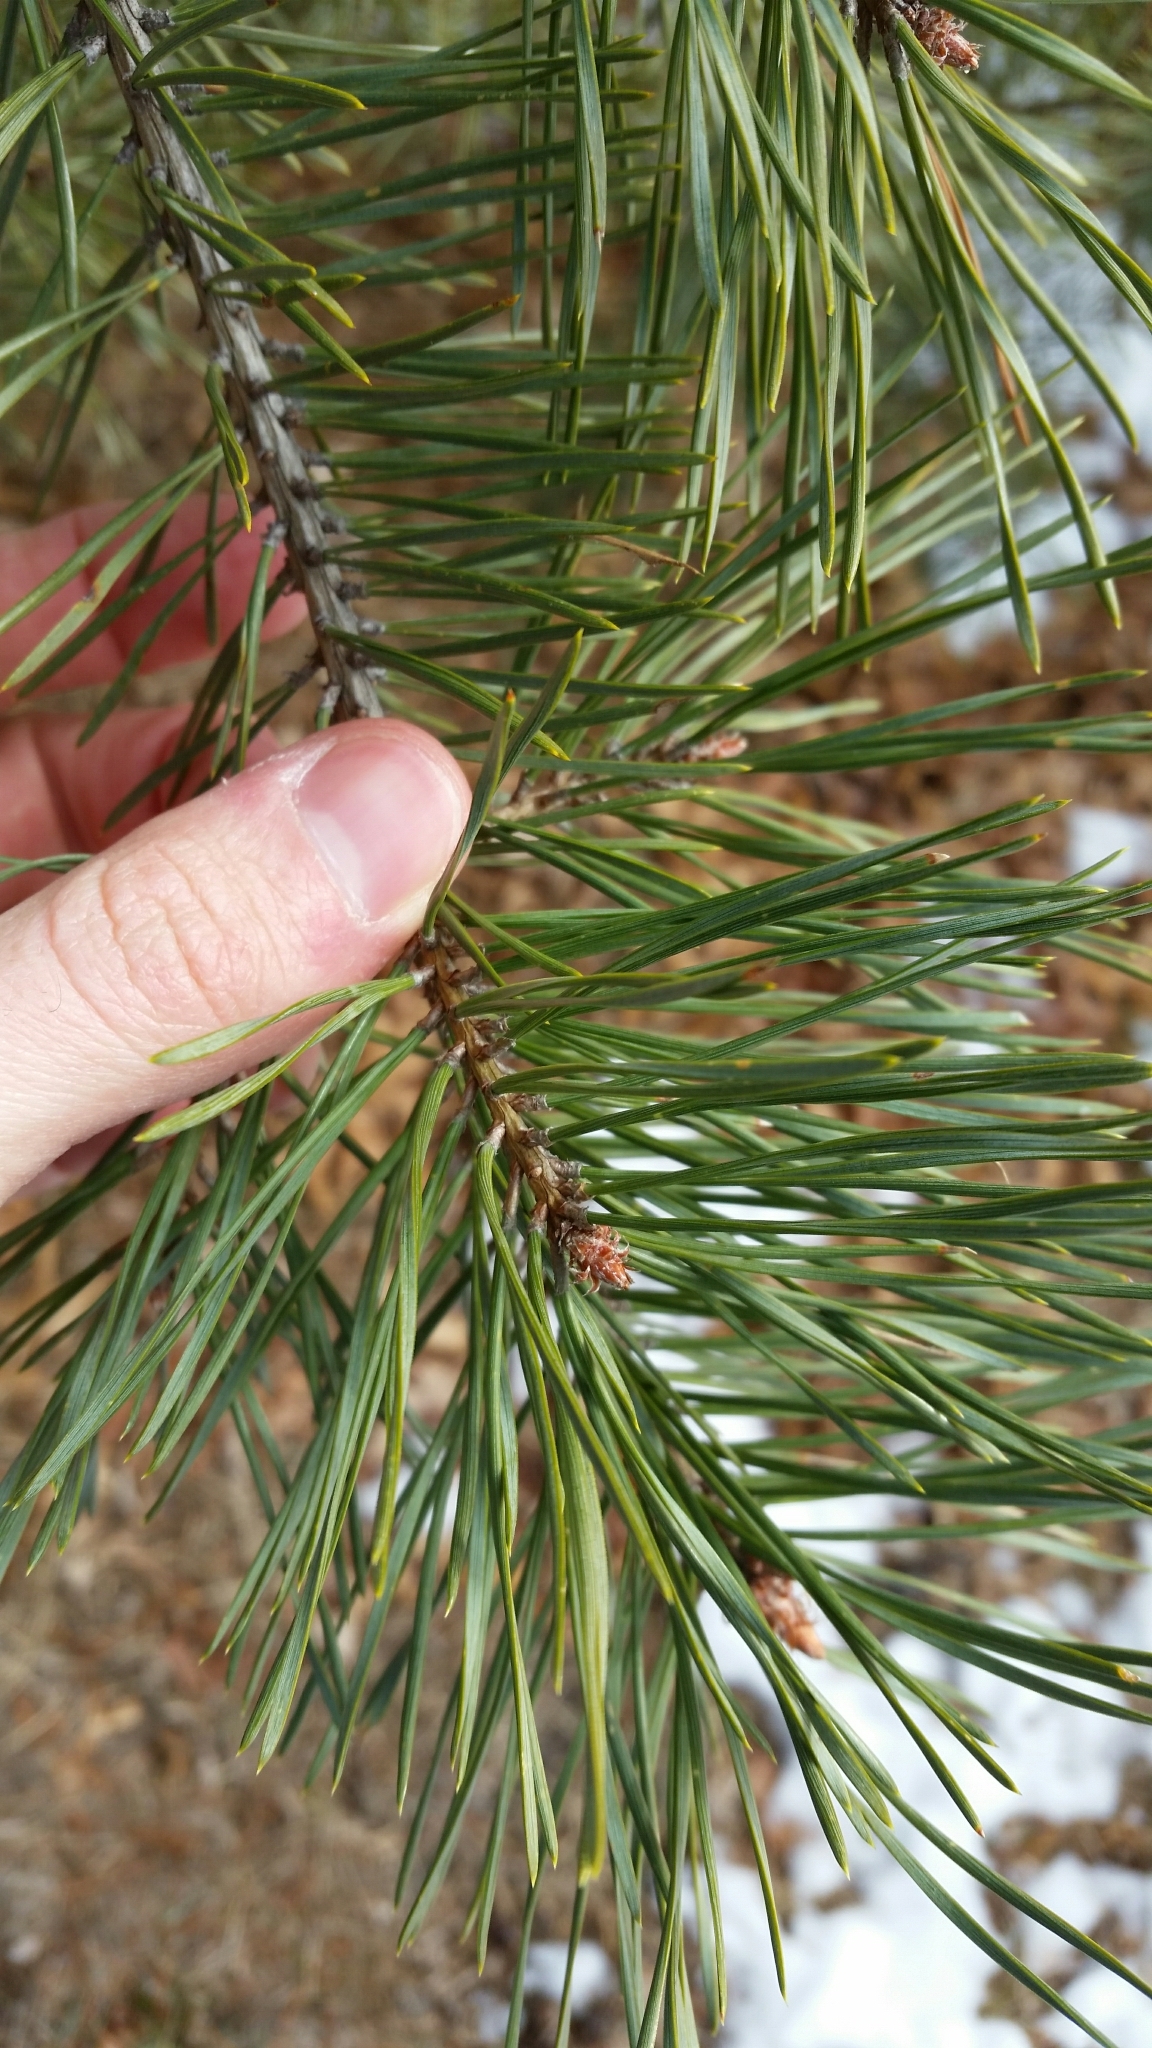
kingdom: Plantae
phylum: Tracheophyta
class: Pinopsida
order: Pinales
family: Pinaceae
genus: Pinus
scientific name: Pinus sylvestris
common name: Scots pine
